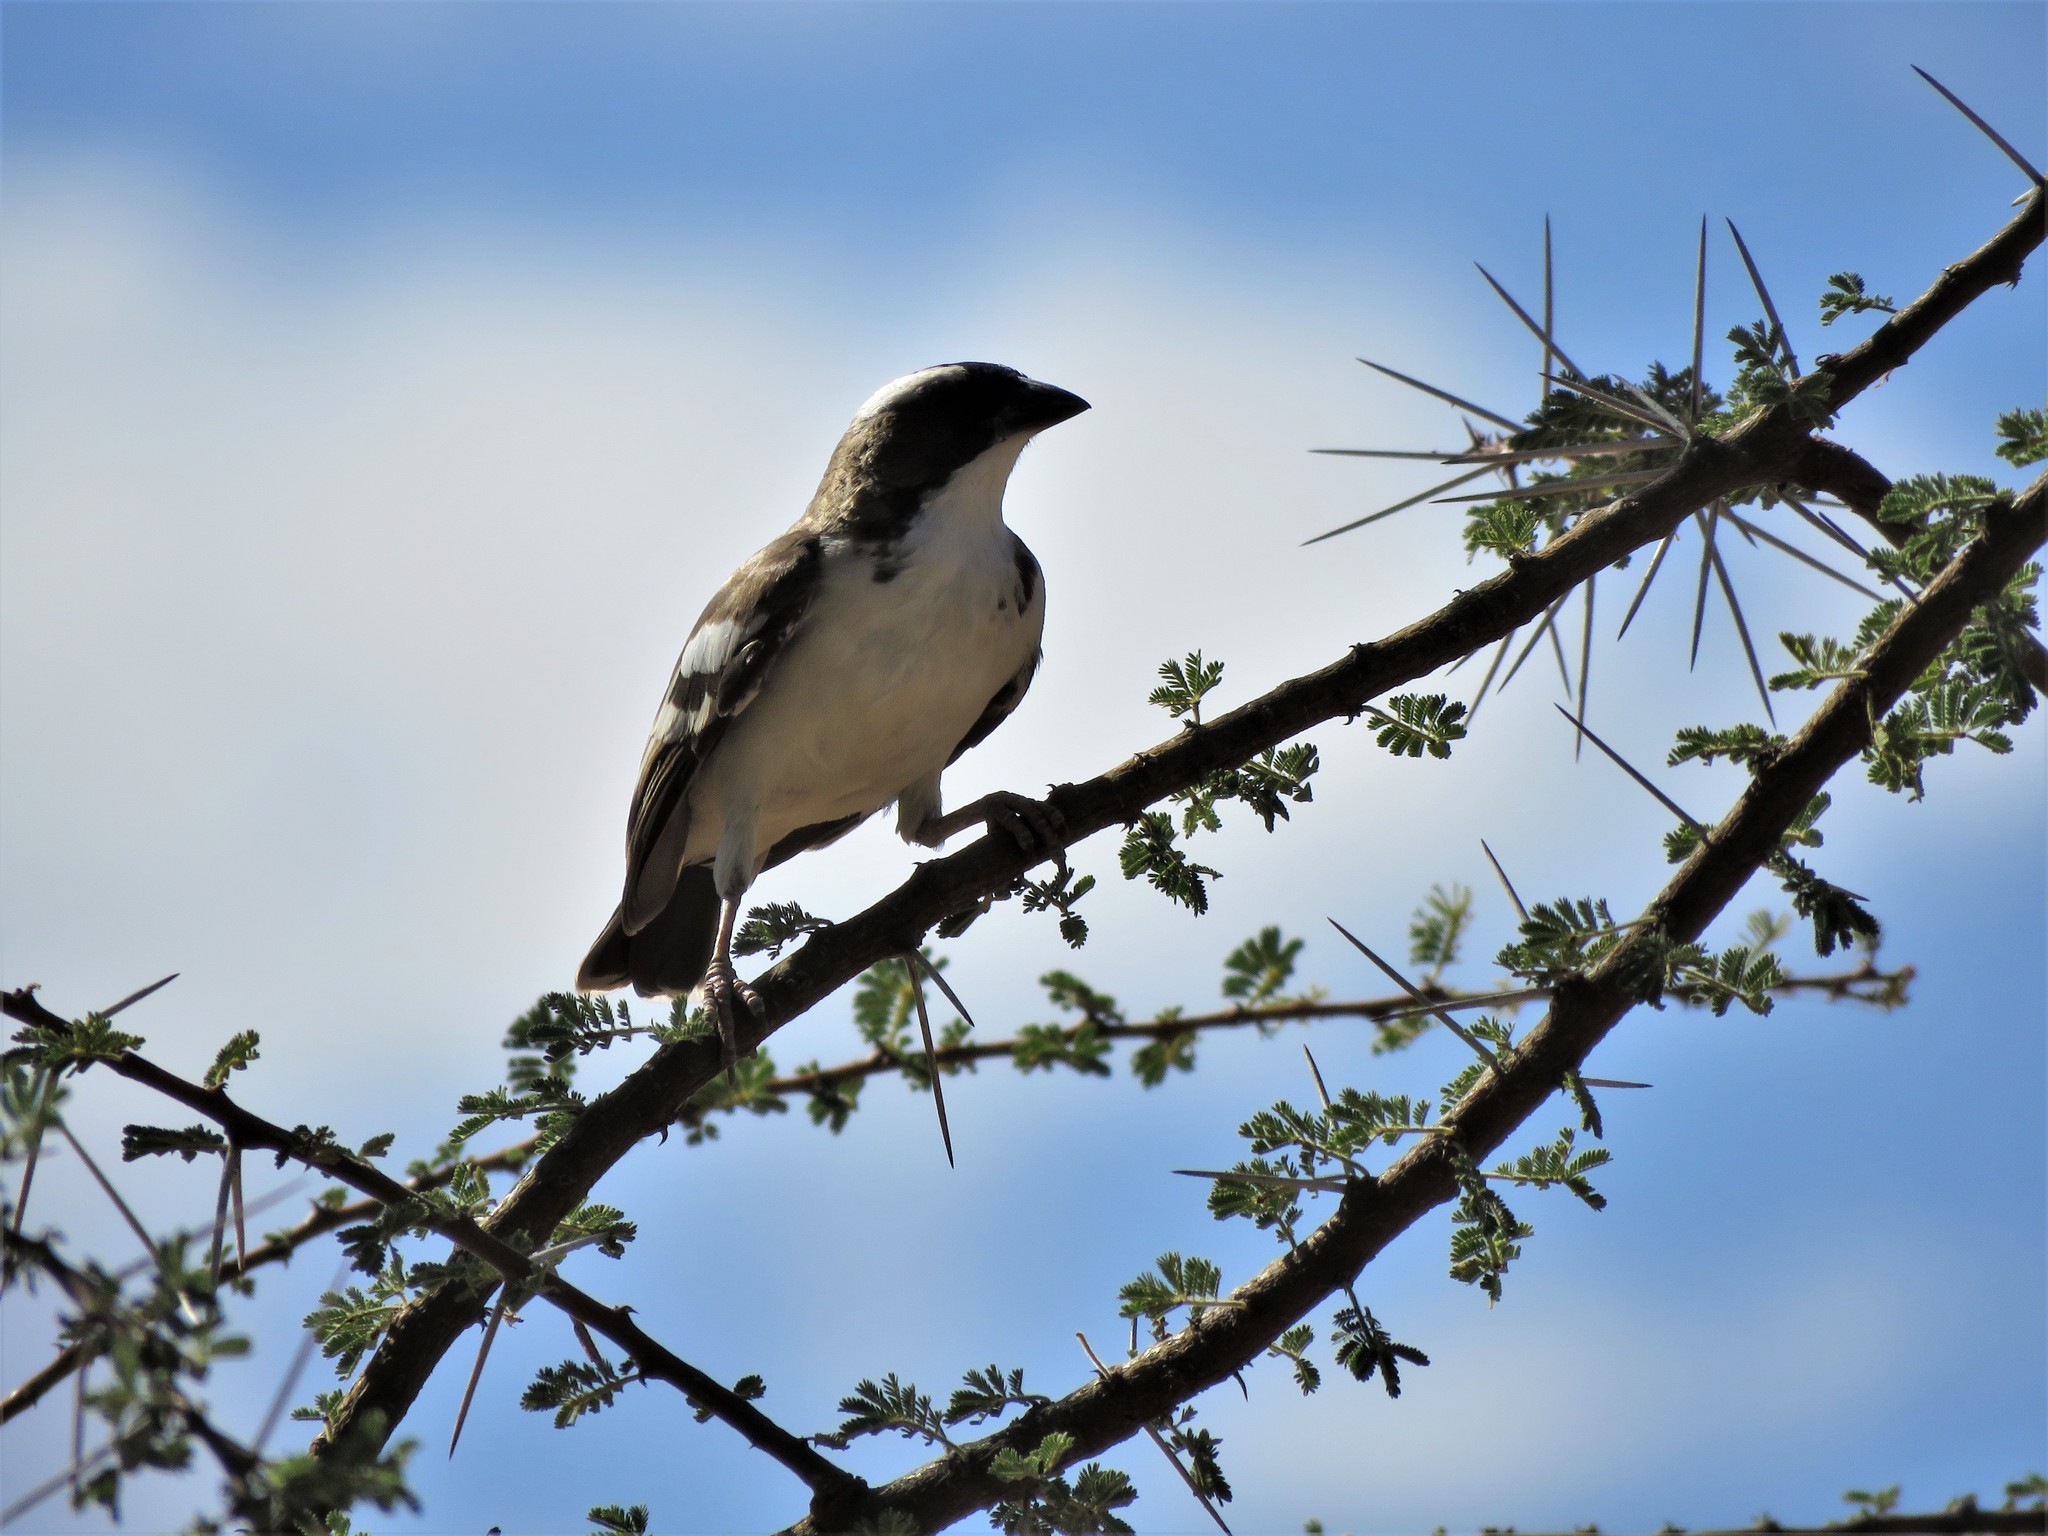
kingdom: Animalia
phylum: Chordata
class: Aves
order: Passeriformes
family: Passeridae
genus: Plocepasser
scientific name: Plocepasser mahali
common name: White-browed sparrow-weaver
